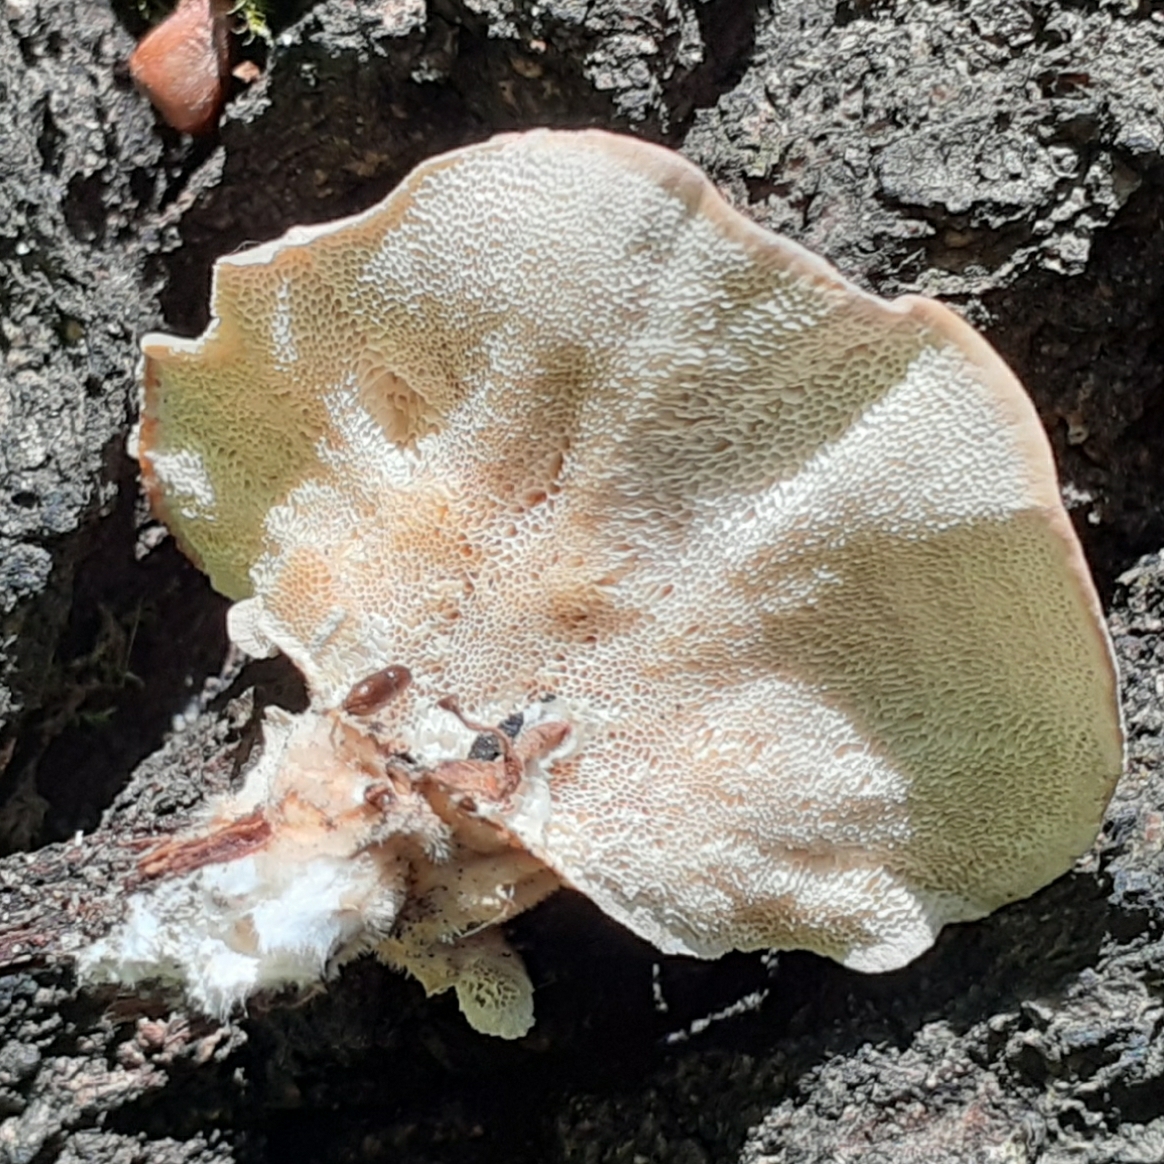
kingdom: Fungi
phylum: Basidiomycota
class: Agaricomycetes
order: Polyporales
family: Polyporaceae
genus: Trametes
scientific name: Trametes versicolor
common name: Turkeytail
